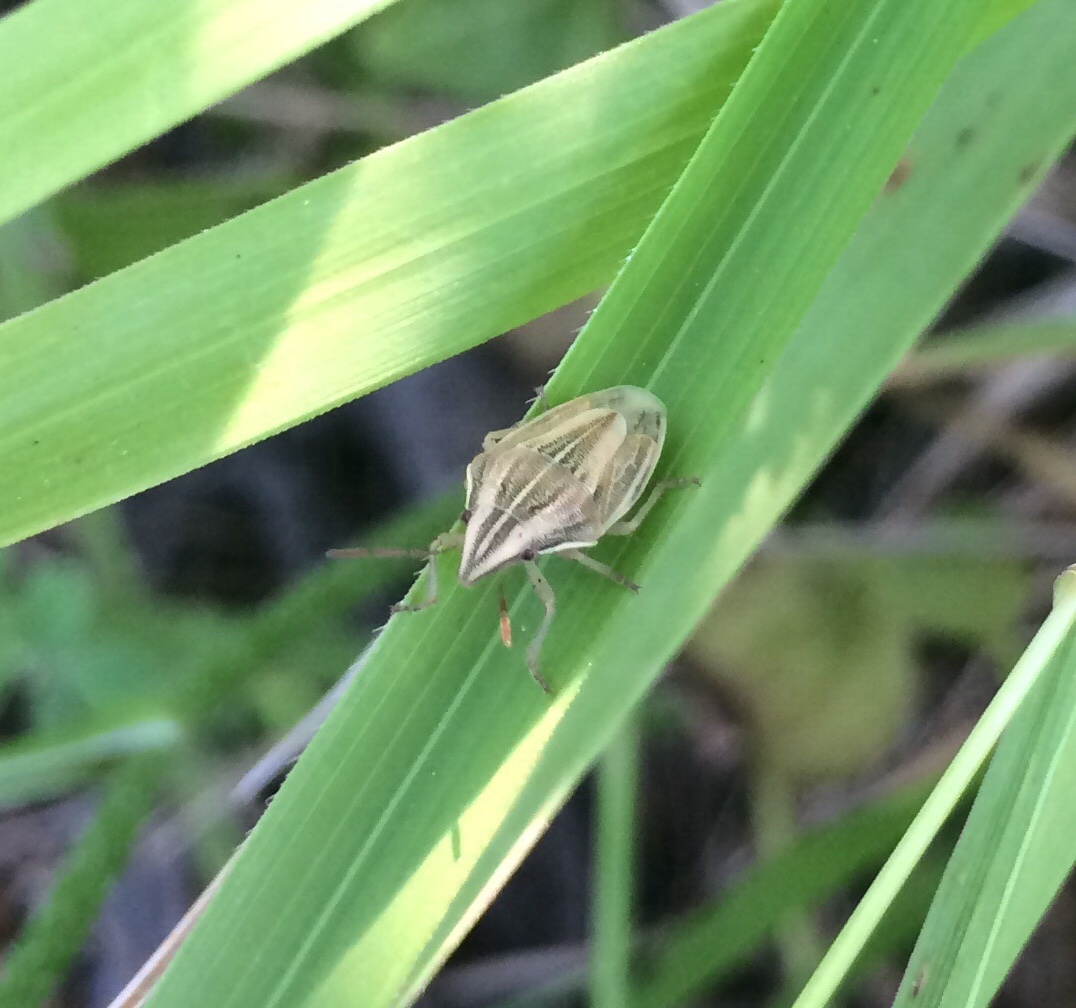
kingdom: Animalia
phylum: Arthropoda
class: Insecta
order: Hemiptera
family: Pentatomidae
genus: Aelia
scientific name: Aelia acuminata
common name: Bishop's mitre
